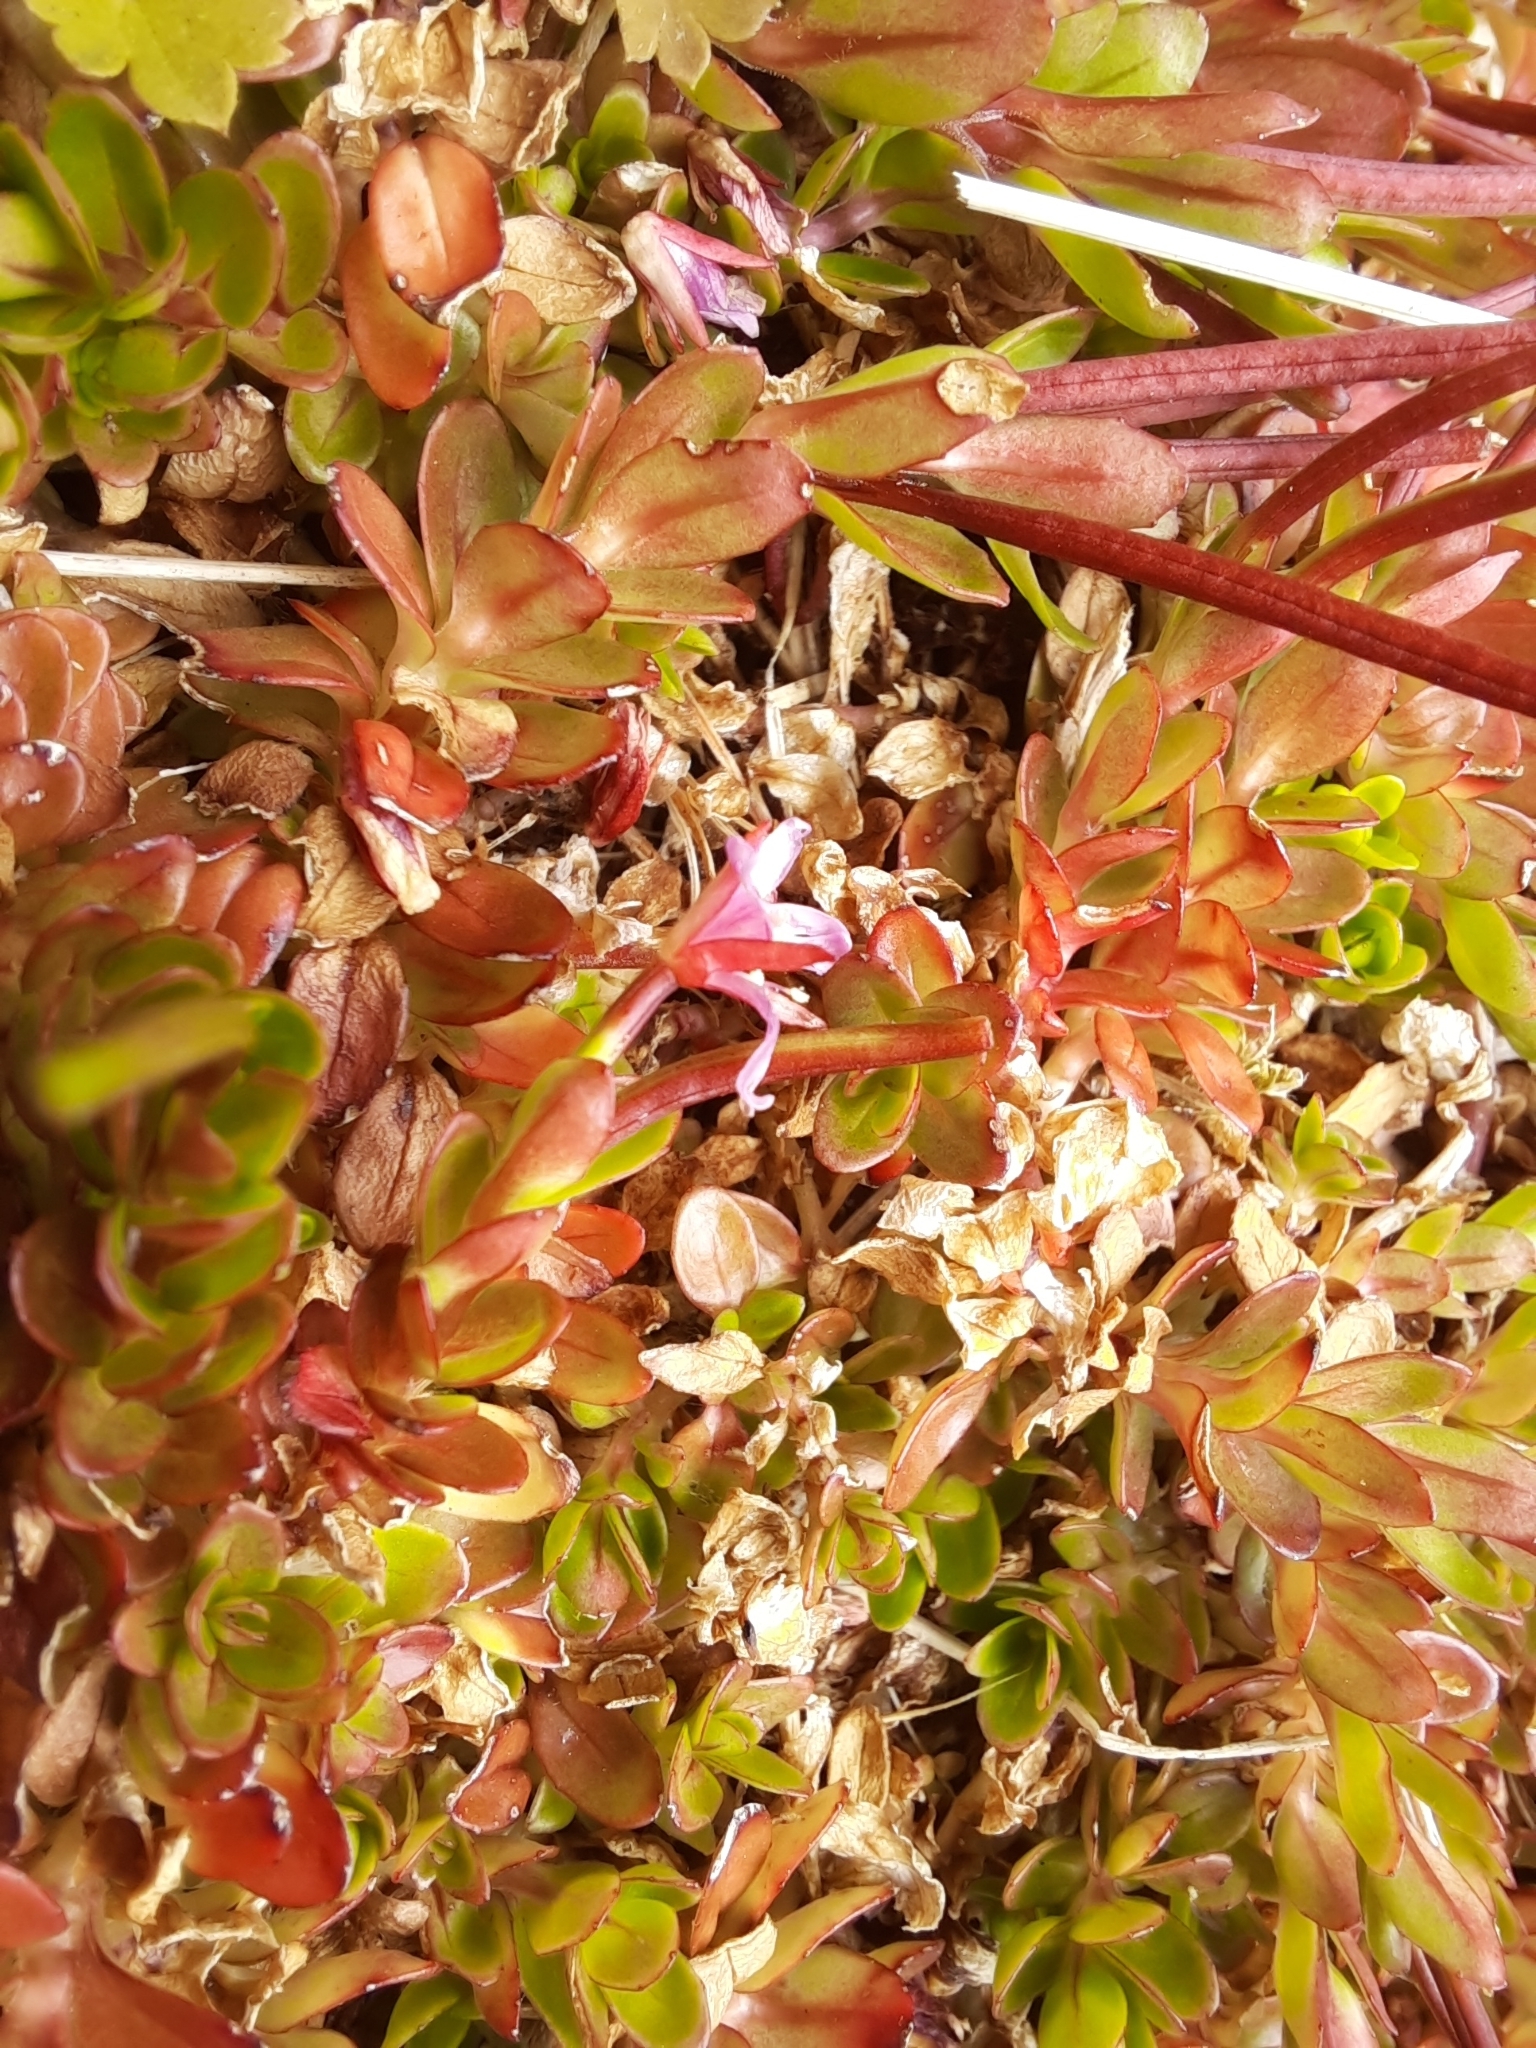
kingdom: Plantae
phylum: Tracheophyta
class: Magnoliopsida
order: Myrtales
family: Onagraceae
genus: Epilobium
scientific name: Epilobium confertifolium
